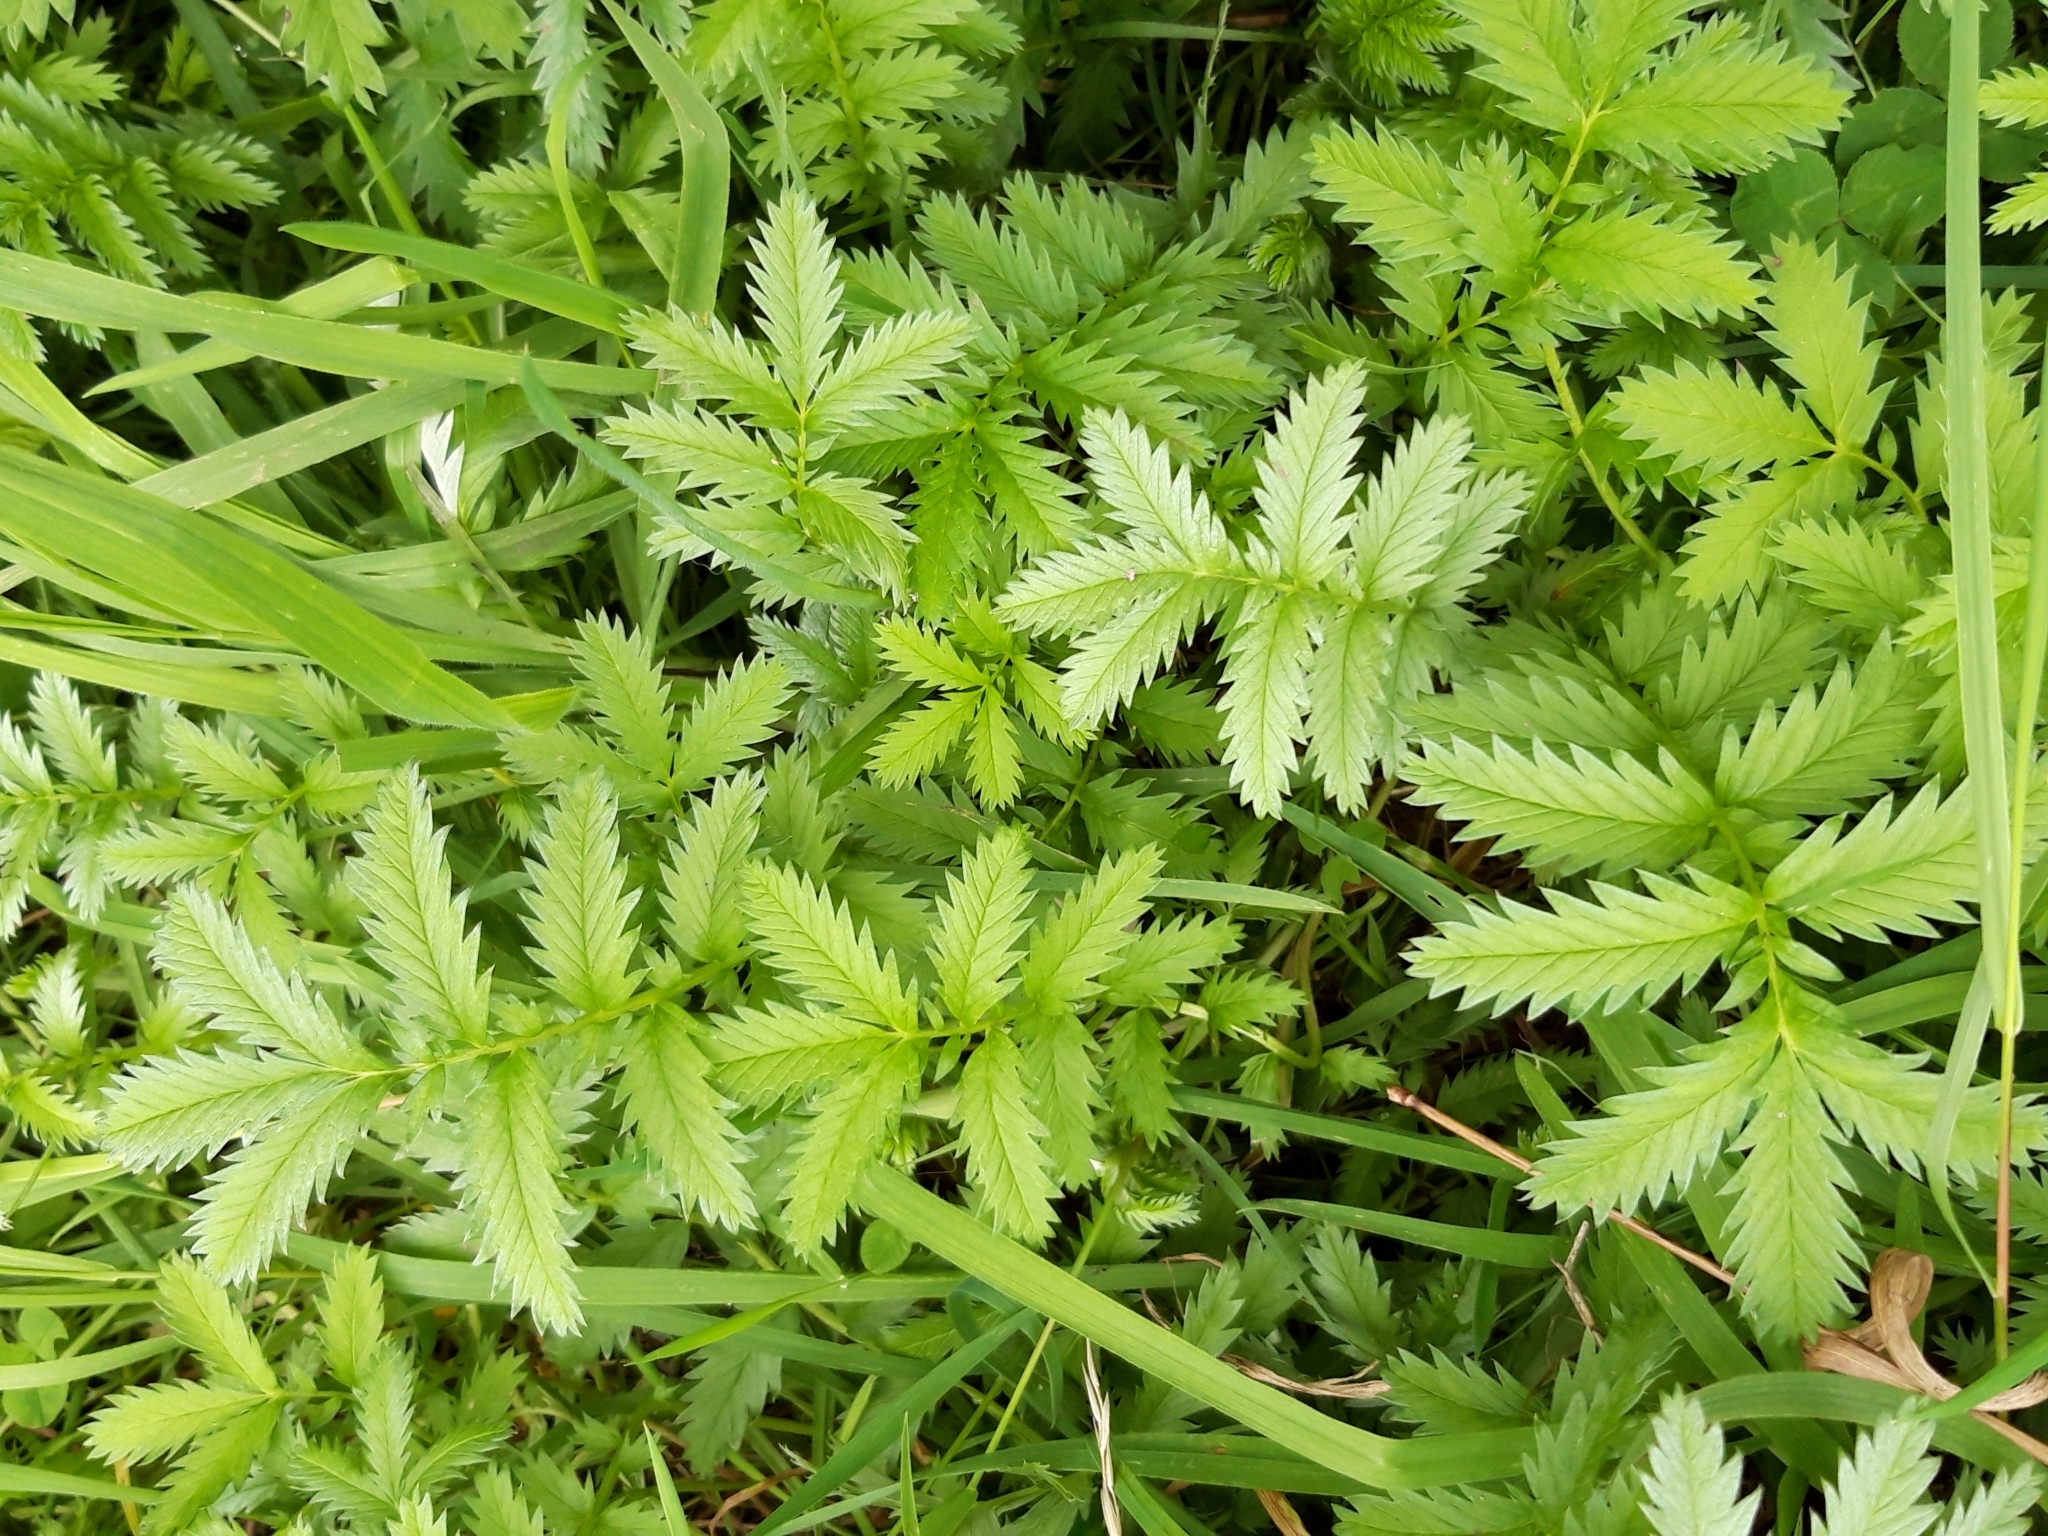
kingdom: Plantae
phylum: Tracheophyta
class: Magnoliopsida
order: Rosales
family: Rosaceae
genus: Argentina
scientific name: Argentina anserina
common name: Common silverweed
